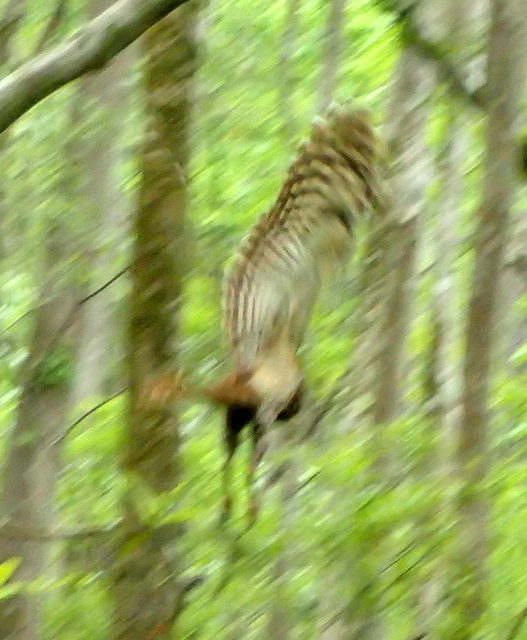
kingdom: Animalia
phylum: Chordata
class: Aves
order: Strigiformes
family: Strigidae
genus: Strix
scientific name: Strix varia
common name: Barred owl
